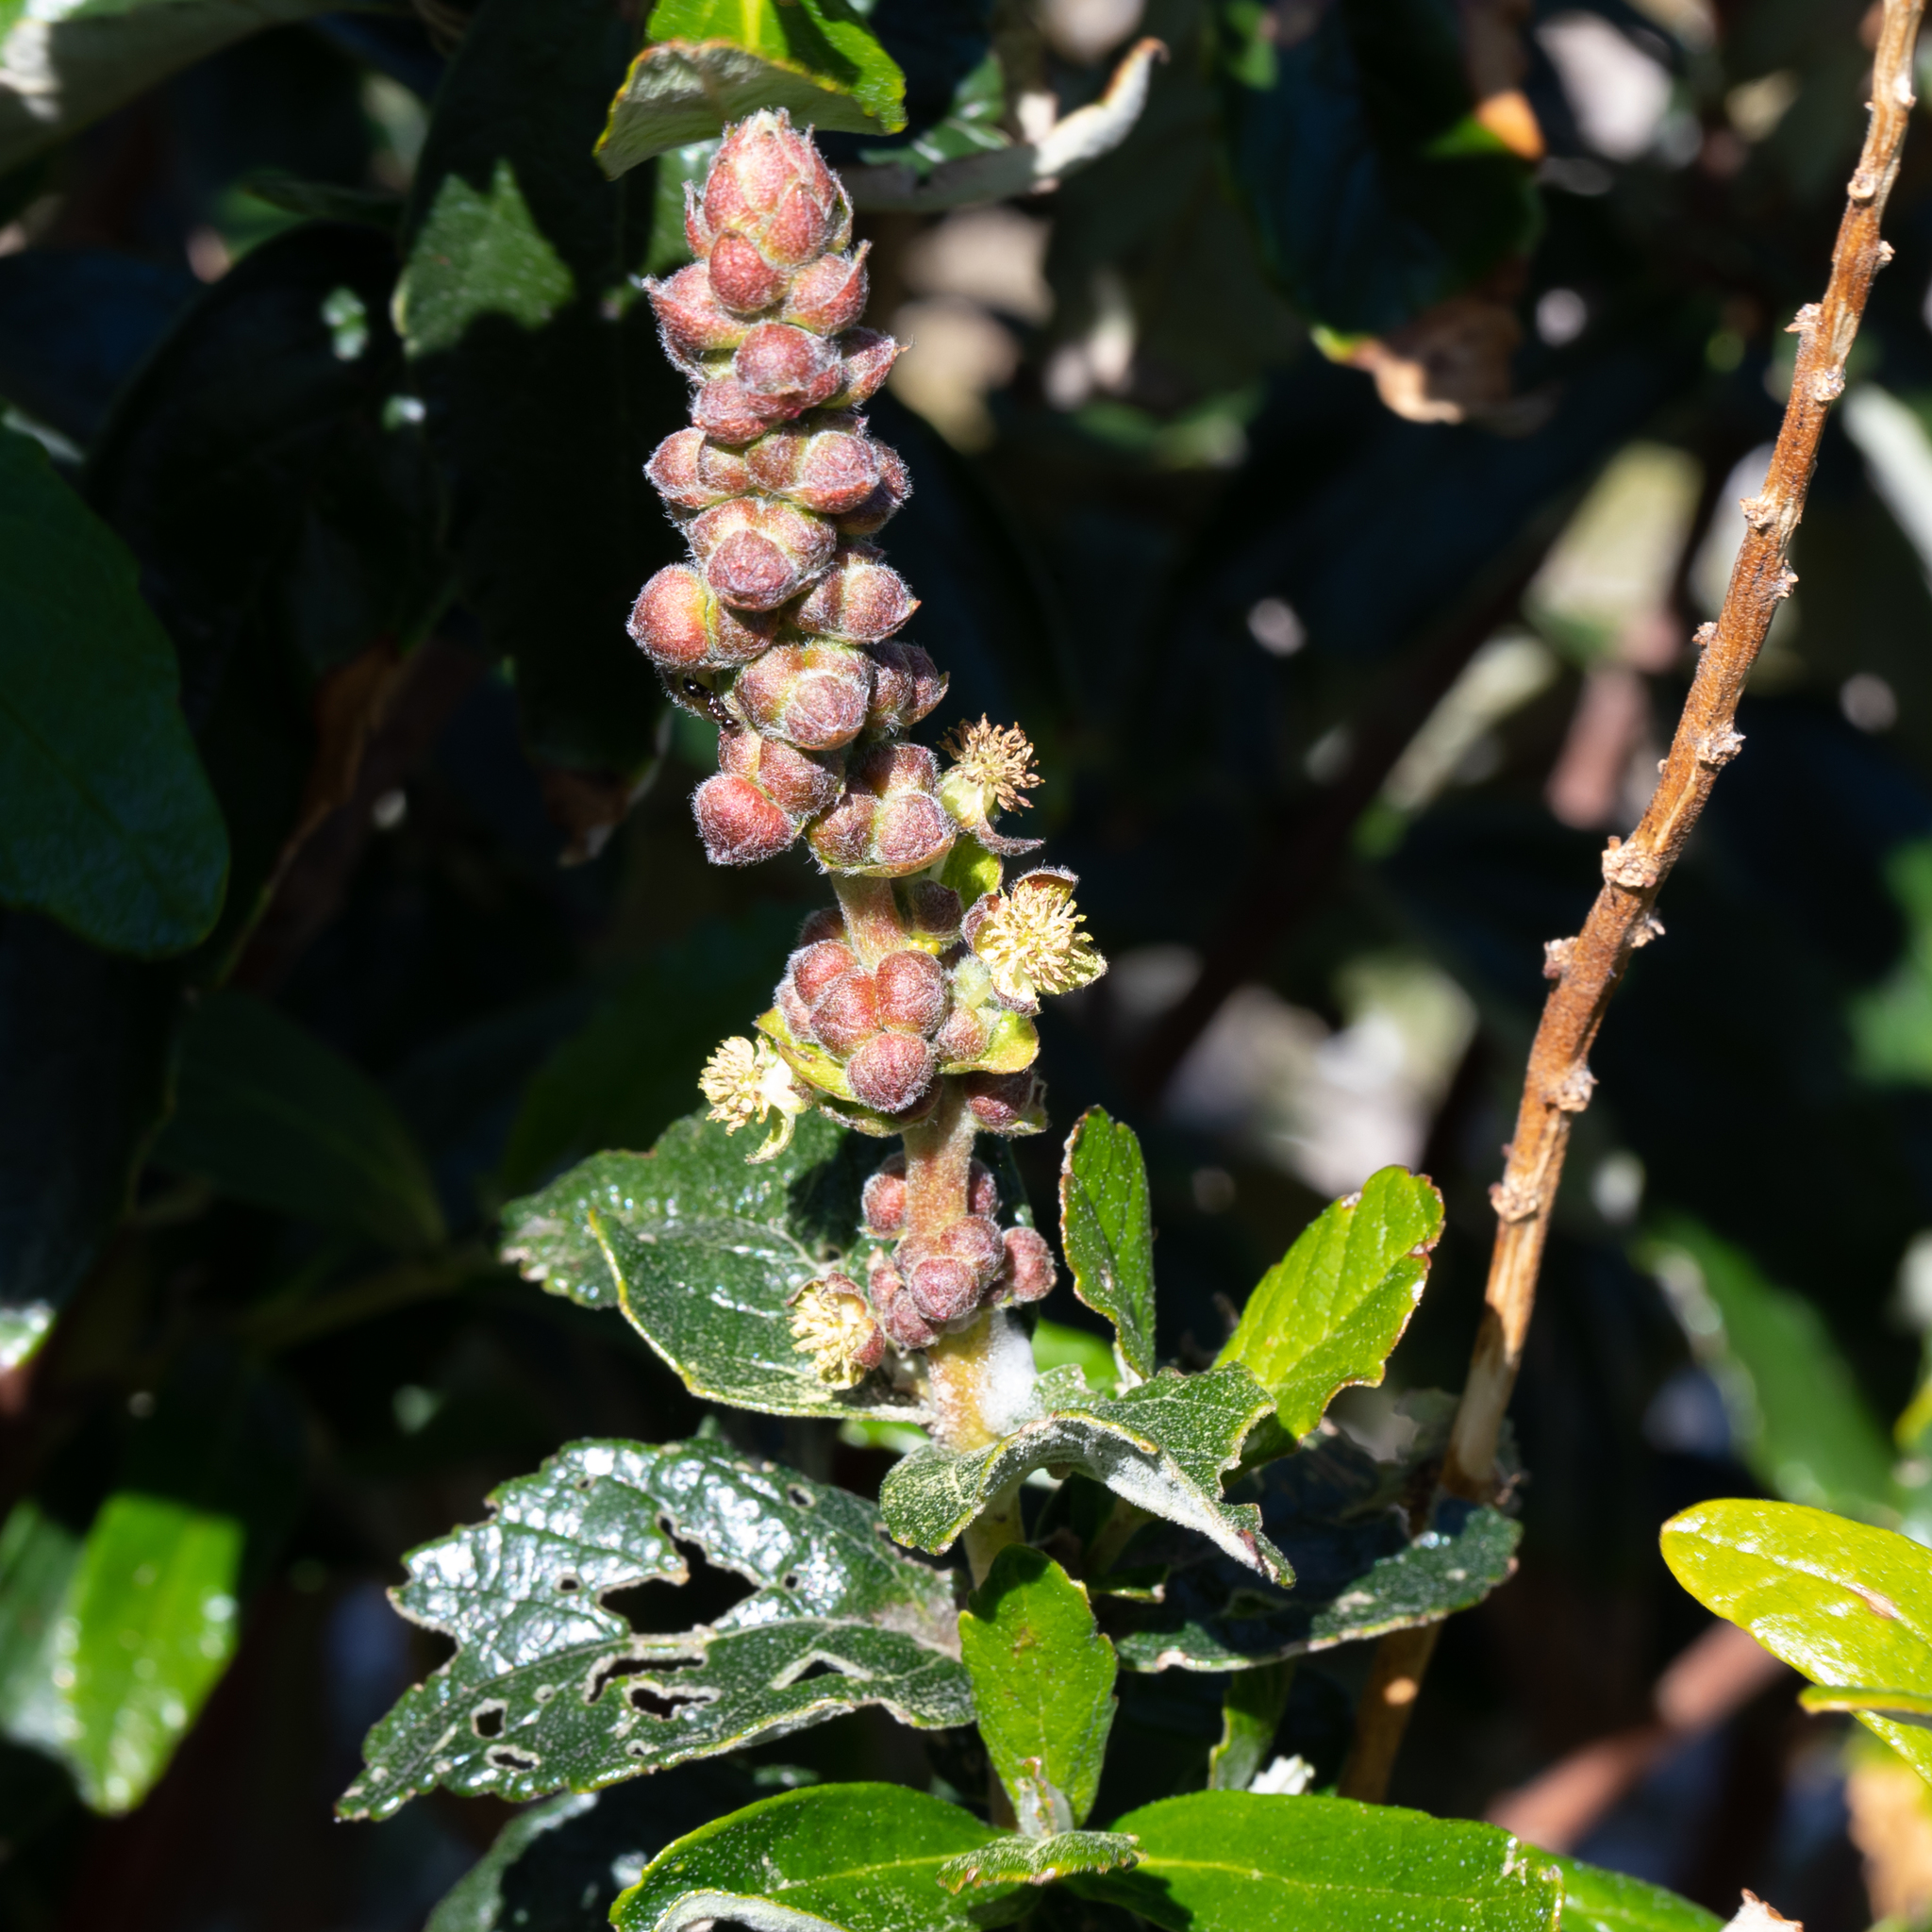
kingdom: Plantae
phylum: Tracheophyta
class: Magnoliopsida
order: Malpighiales
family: Euphorbiaceae
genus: Adriana
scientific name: Adriana quadripartita
